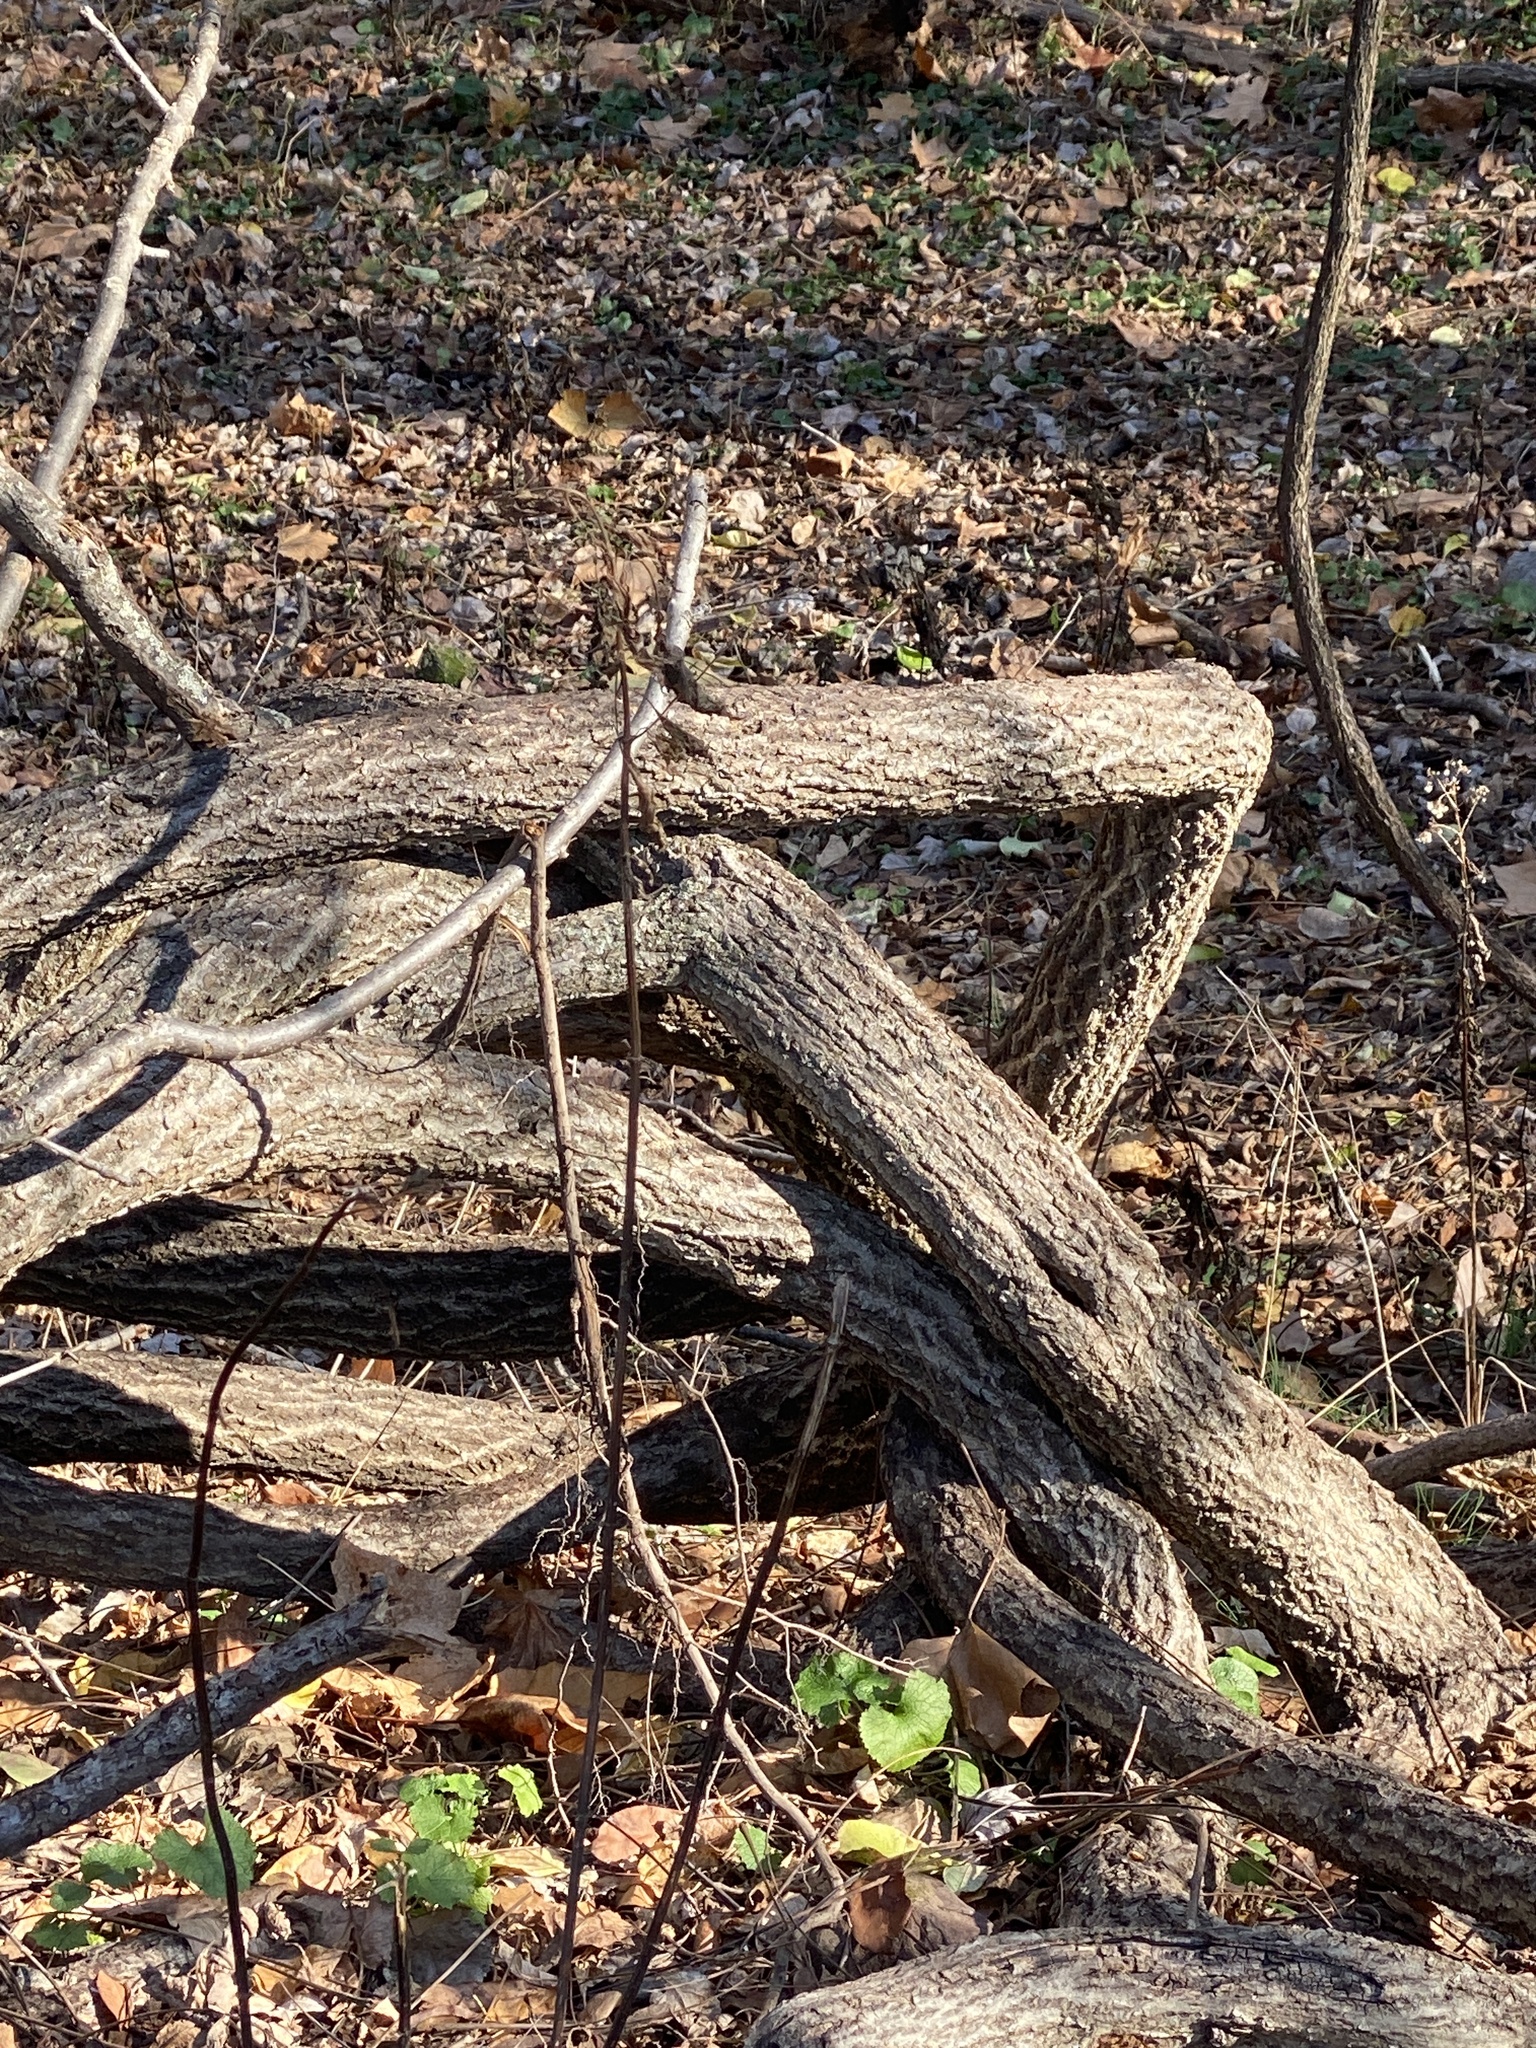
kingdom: Plantae
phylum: Tracheophyta
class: Magnoliopsida
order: Celastrales
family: Celastraceae
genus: Celastrus
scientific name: Celastrus orbiculatus
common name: Oriental bittersweet
